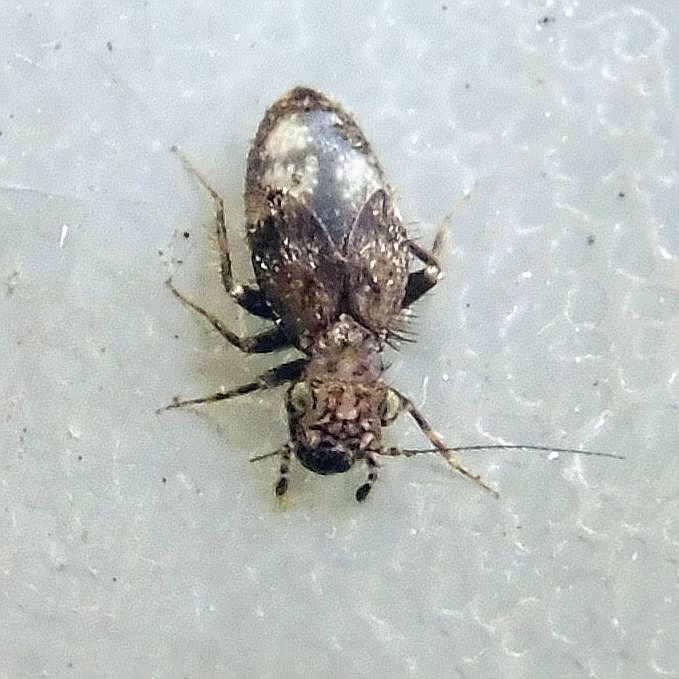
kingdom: Animalia
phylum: Arthropoda
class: Insecta
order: Psocodea
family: Lepidopsocidae
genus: Pteroxanium
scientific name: Pteroxanium kelloggi
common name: Bark lice
